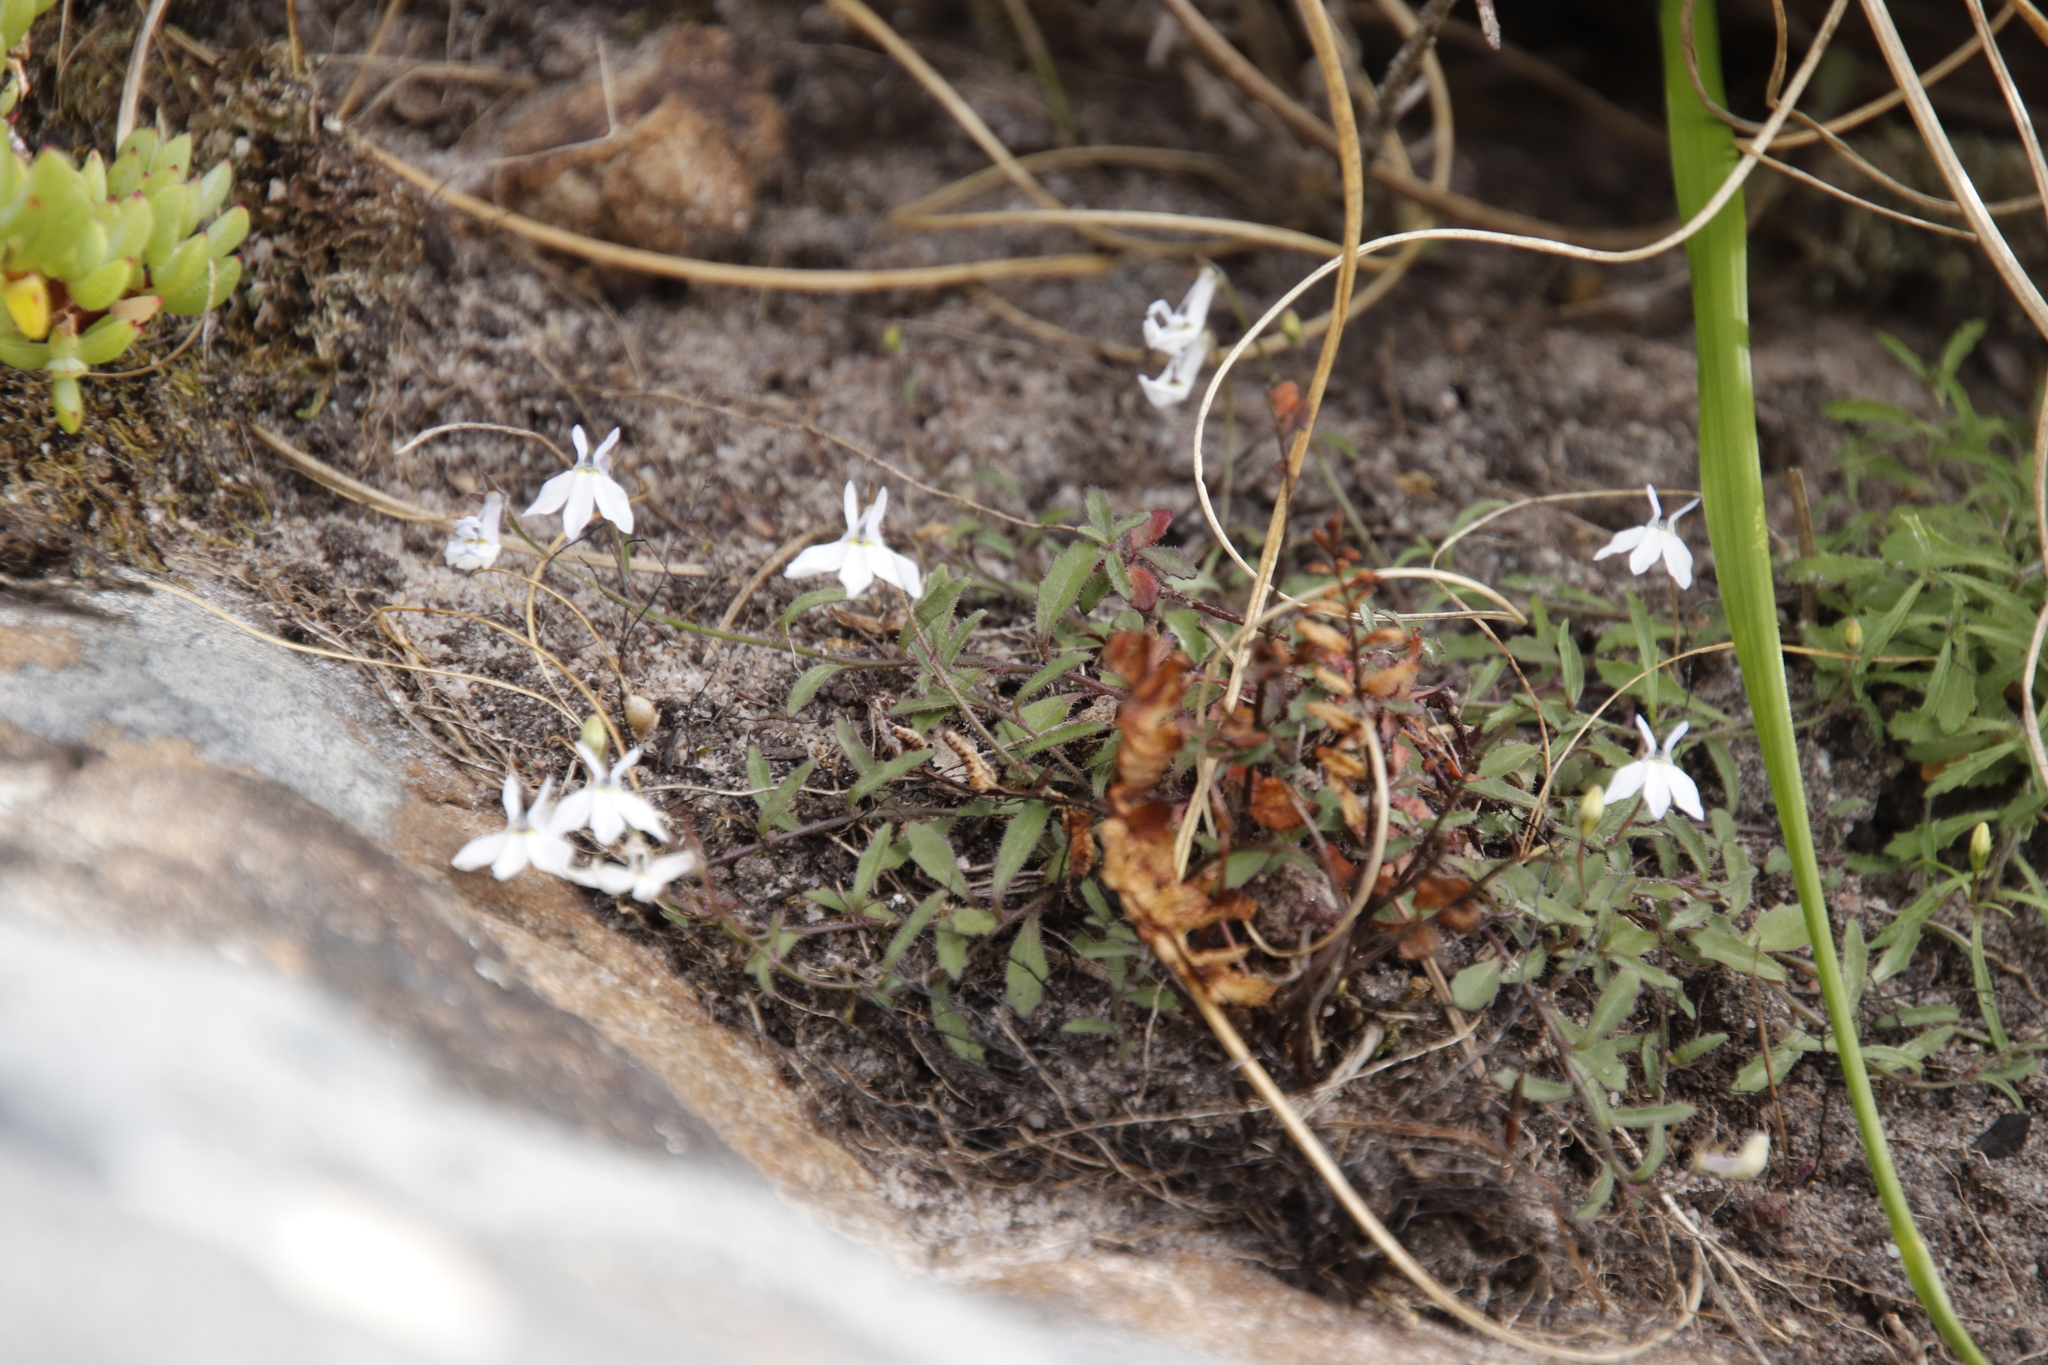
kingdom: Plantae
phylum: Tracheophyta
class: Magnoliopsida
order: Asterales
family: Campanulaceae
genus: Lobelia
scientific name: Lobelia pubescens
